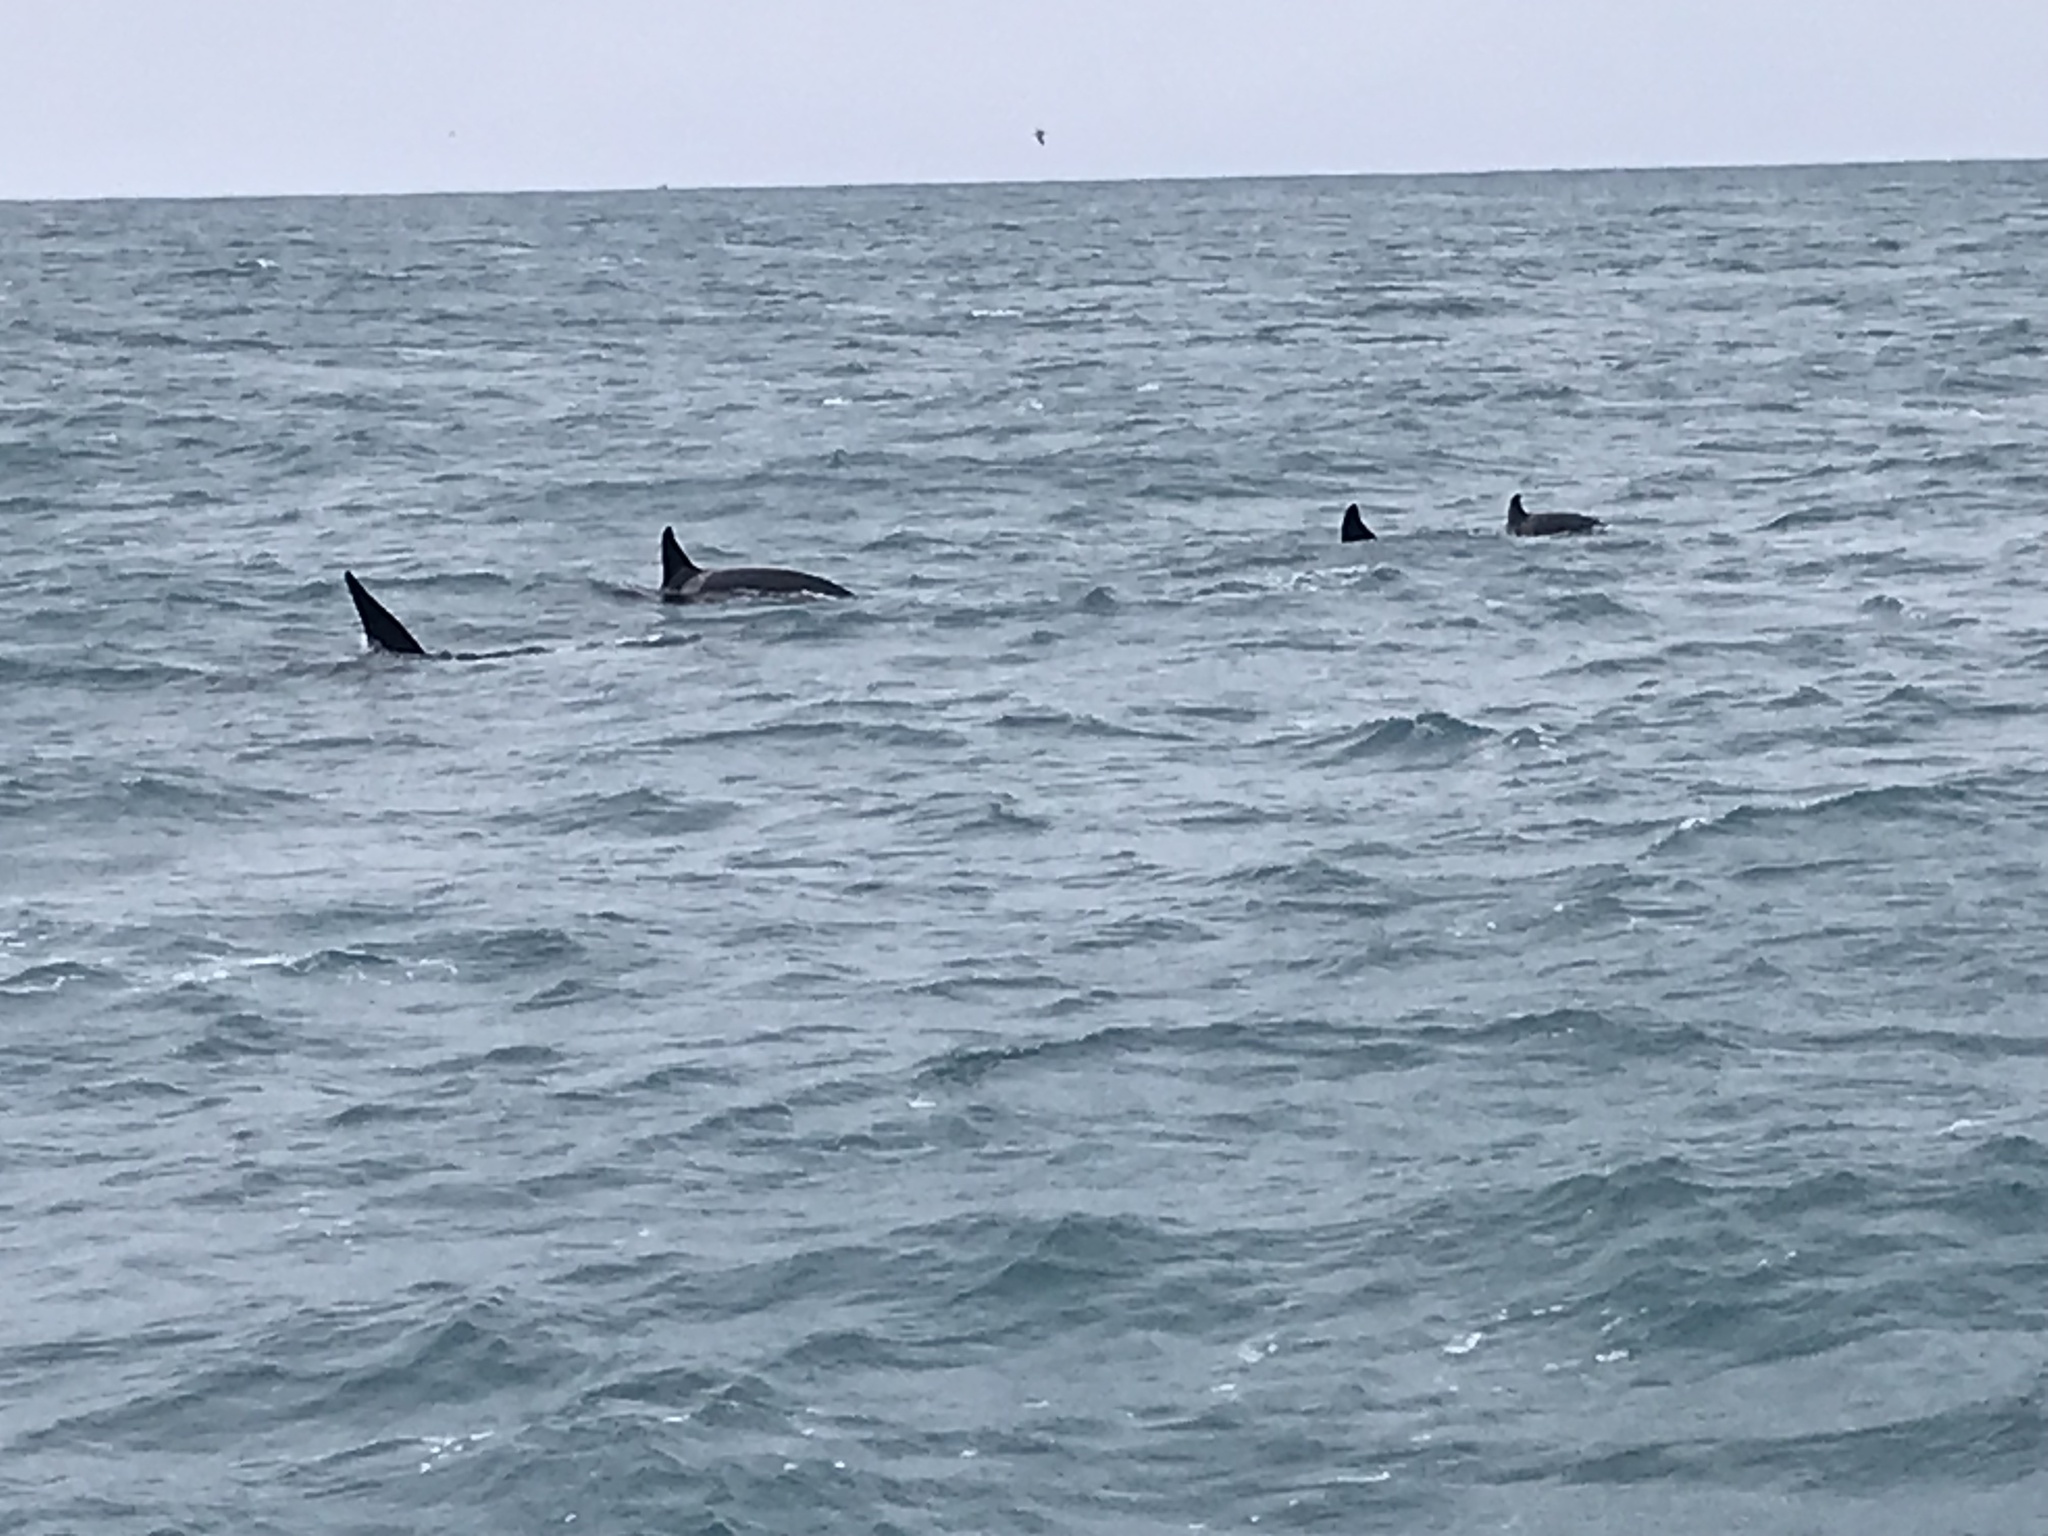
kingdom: Animalia
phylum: Chordata
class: Mammalia
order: Cetacea
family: Delphinidae
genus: Orcinus
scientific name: Orcinus orca
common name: Killer whale
